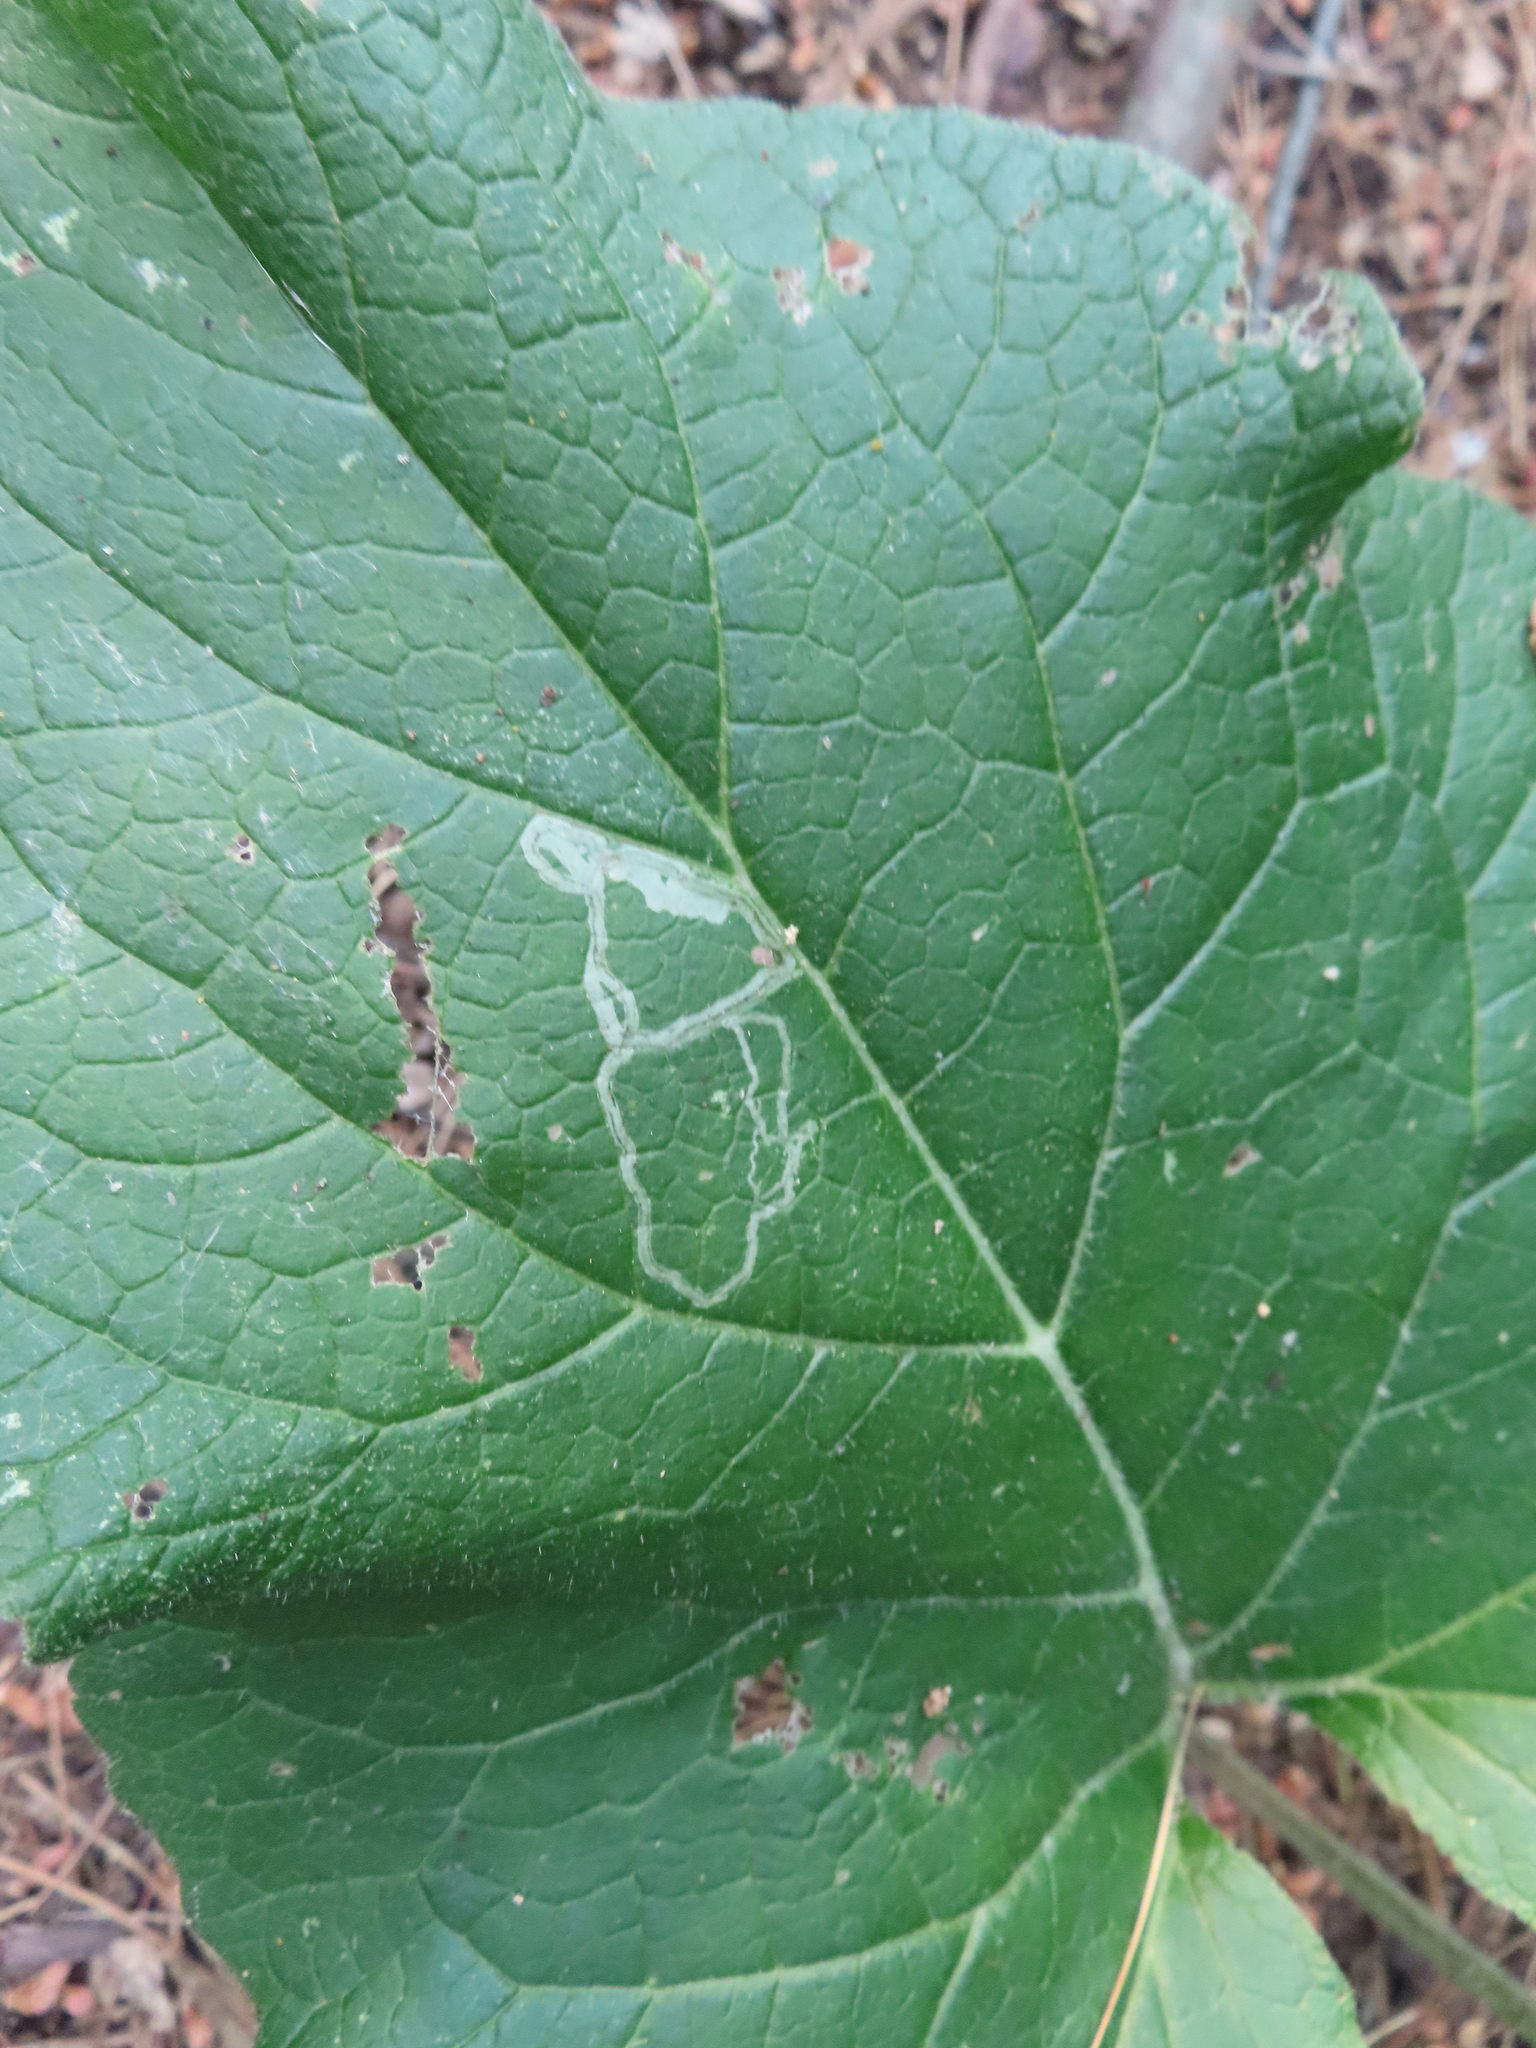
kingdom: Animalia
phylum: Arthropoda
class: Insecta
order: Diptera
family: Agromyzidae
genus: Liriomyza
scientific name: Liriomyza arctii
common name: Burdock leafminer
